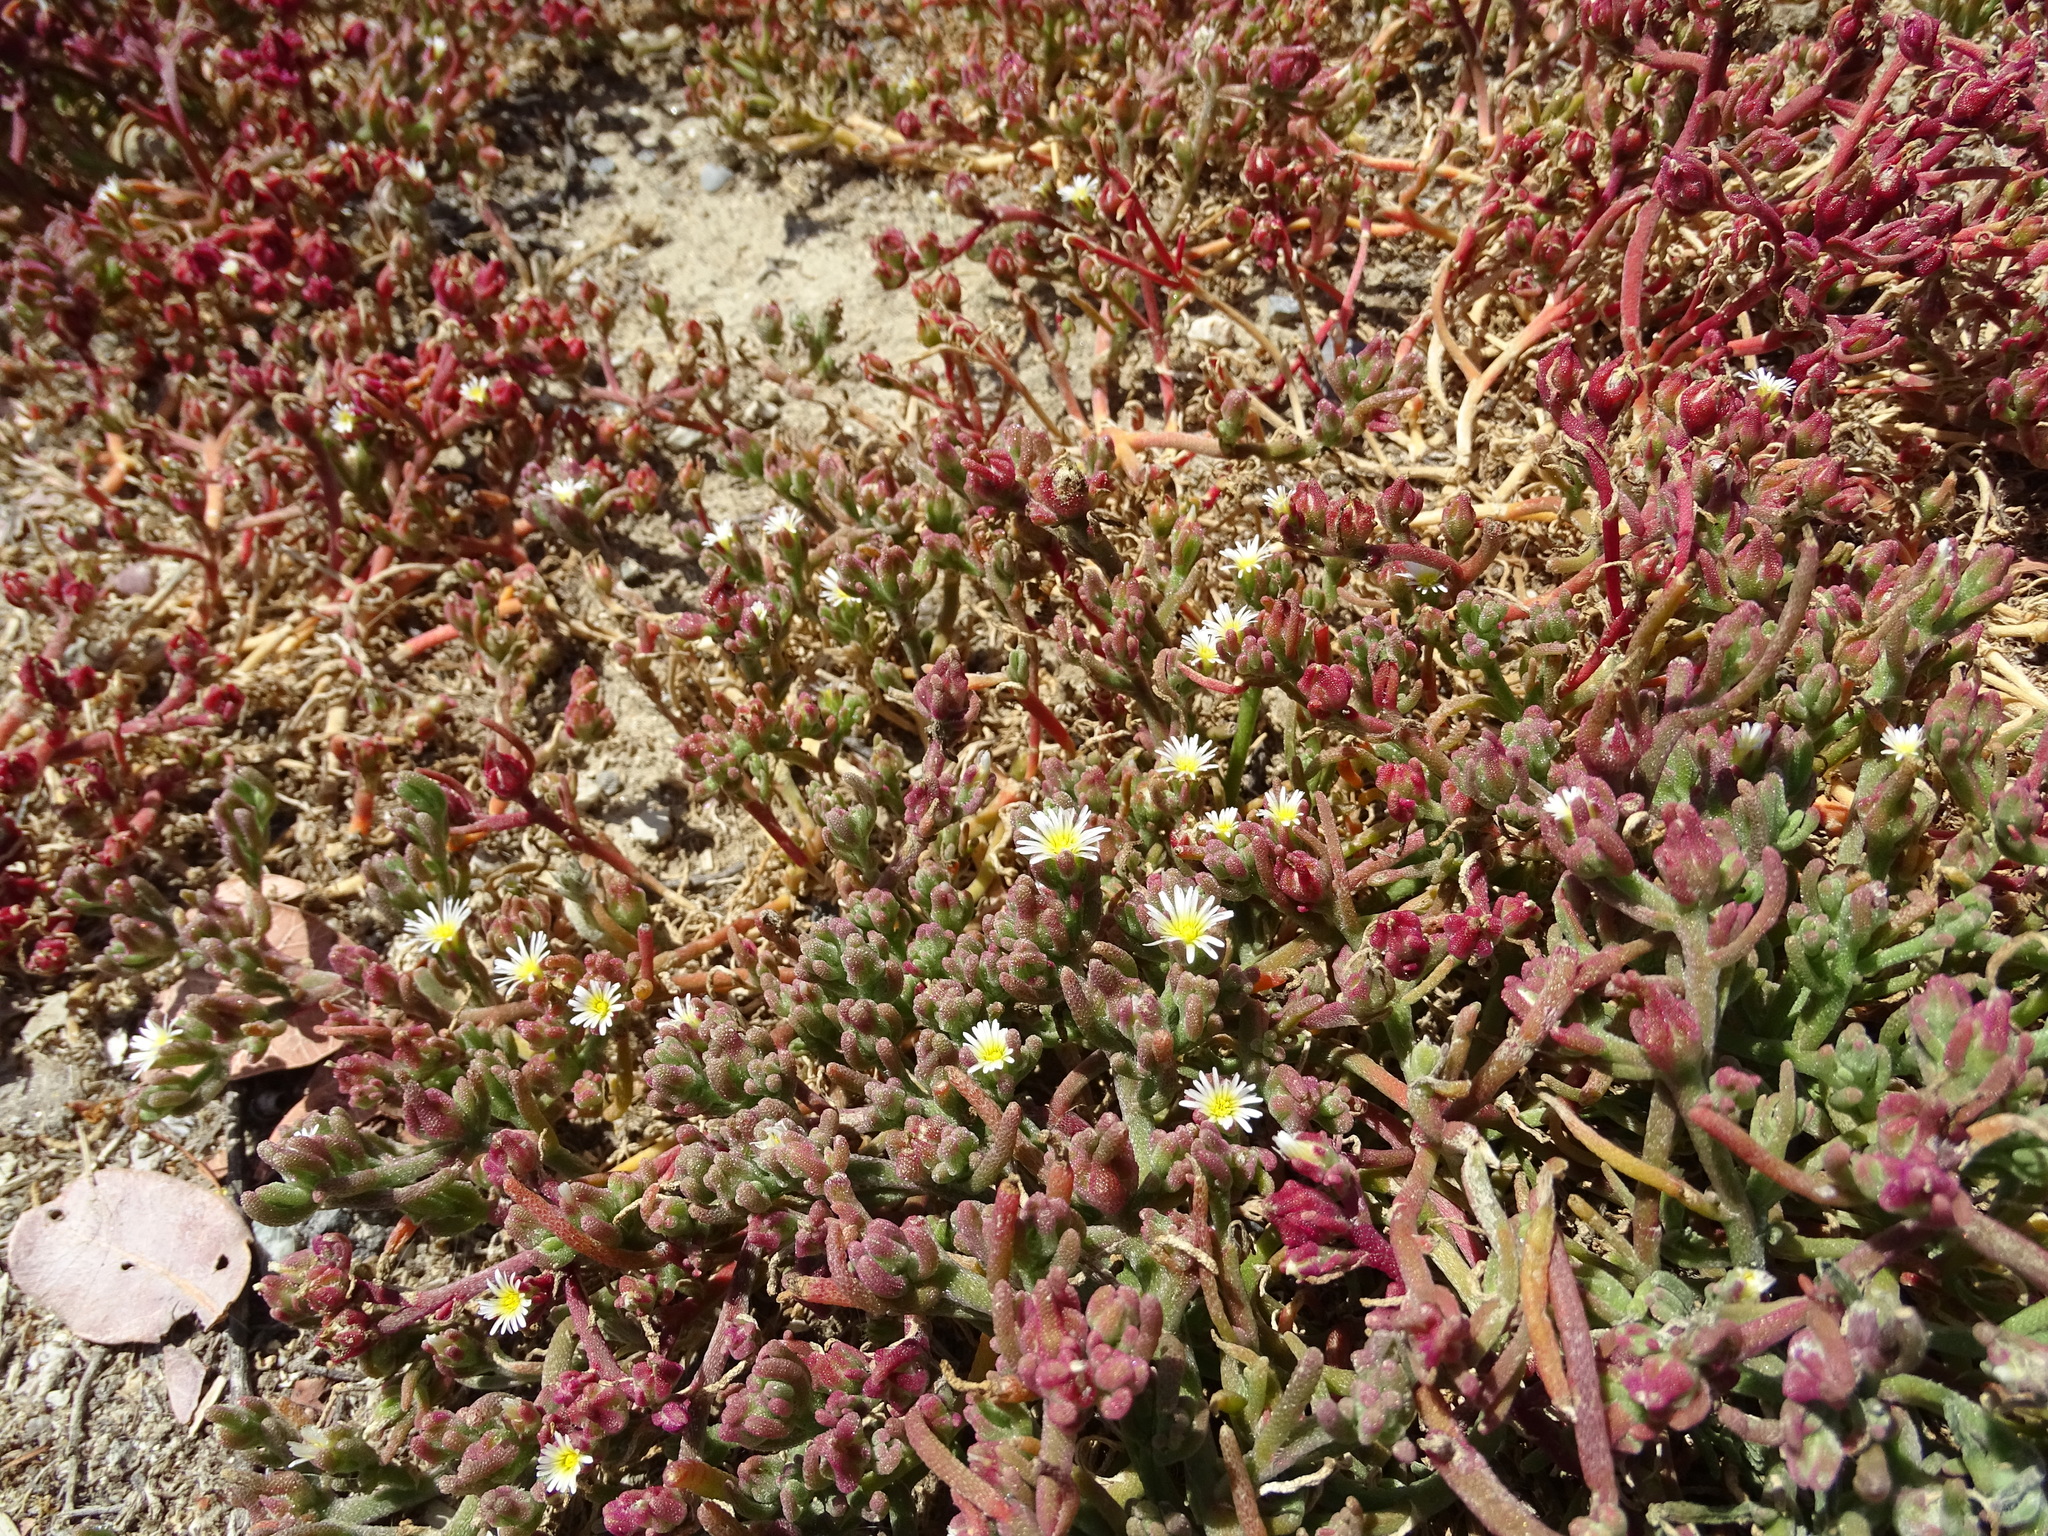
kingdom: Plantae
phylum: Tracheophyta
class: Magnoliopsida
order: Caryophyllales
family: Aizoaceae
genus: Mesembryanthemum
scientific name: Mesembryanthemum nodiflorum
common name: Slenderleaf iceplant
